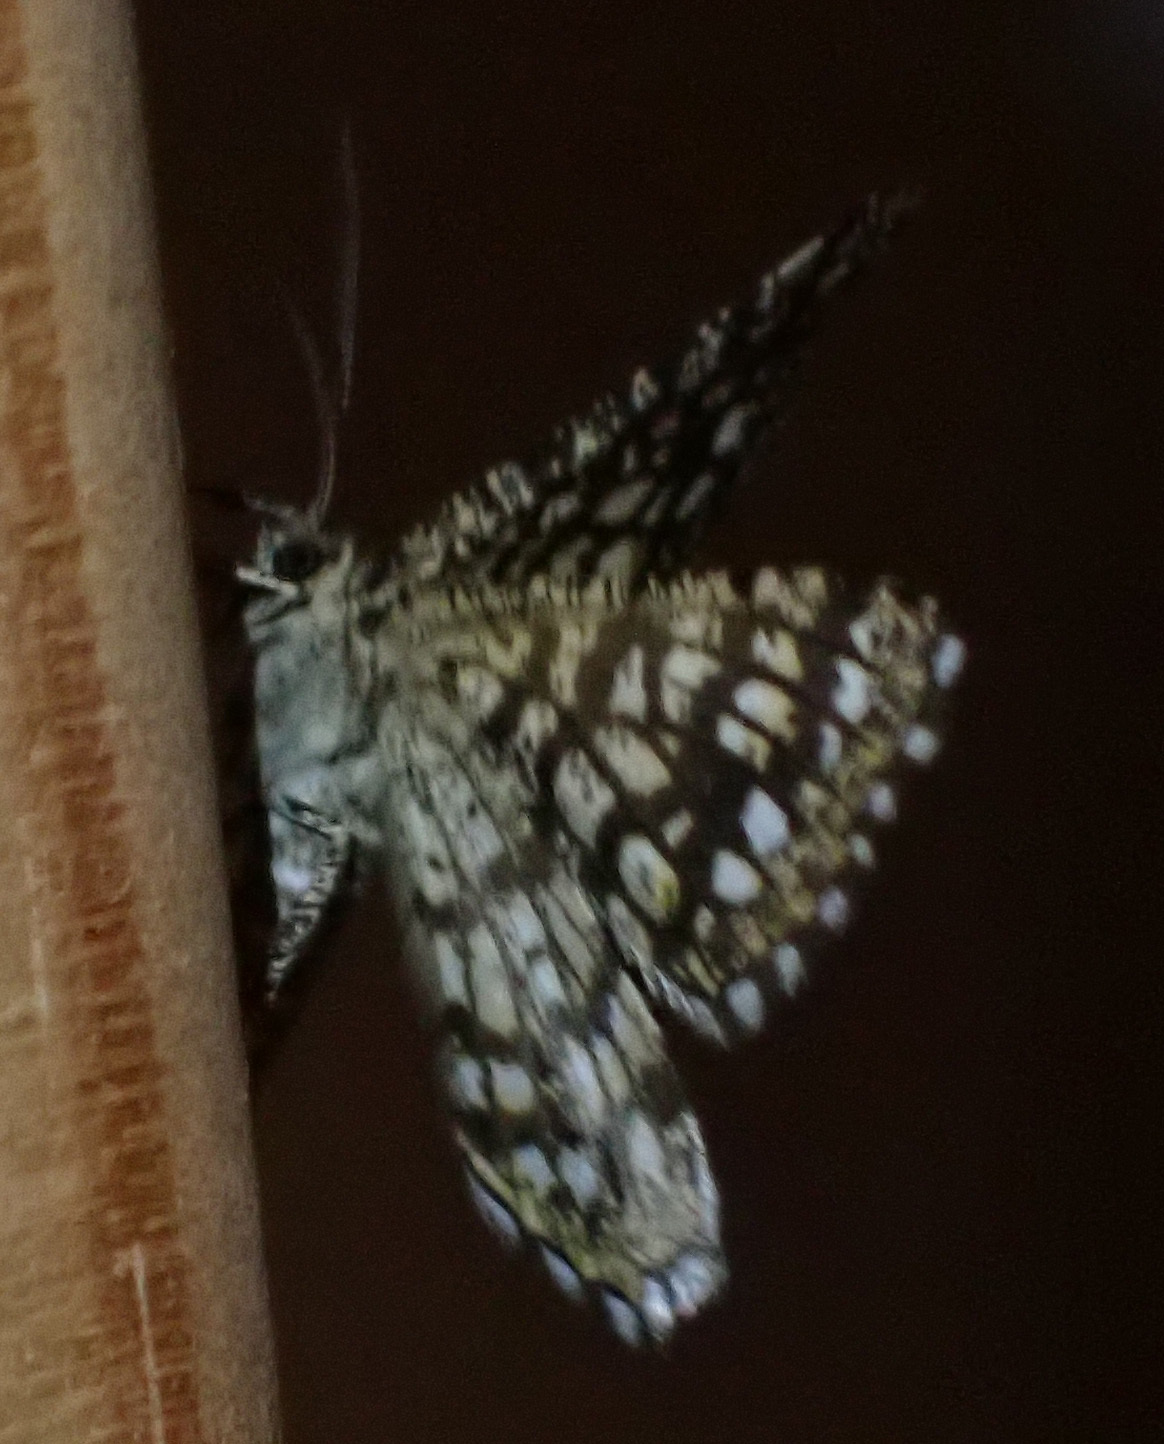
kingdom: Animalia
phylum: Arthropoda
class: Insecta
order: Lepidoptera
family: Geometridae
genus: Chiasmia
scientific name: Chiasmia clathrata
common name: Latticed heath
